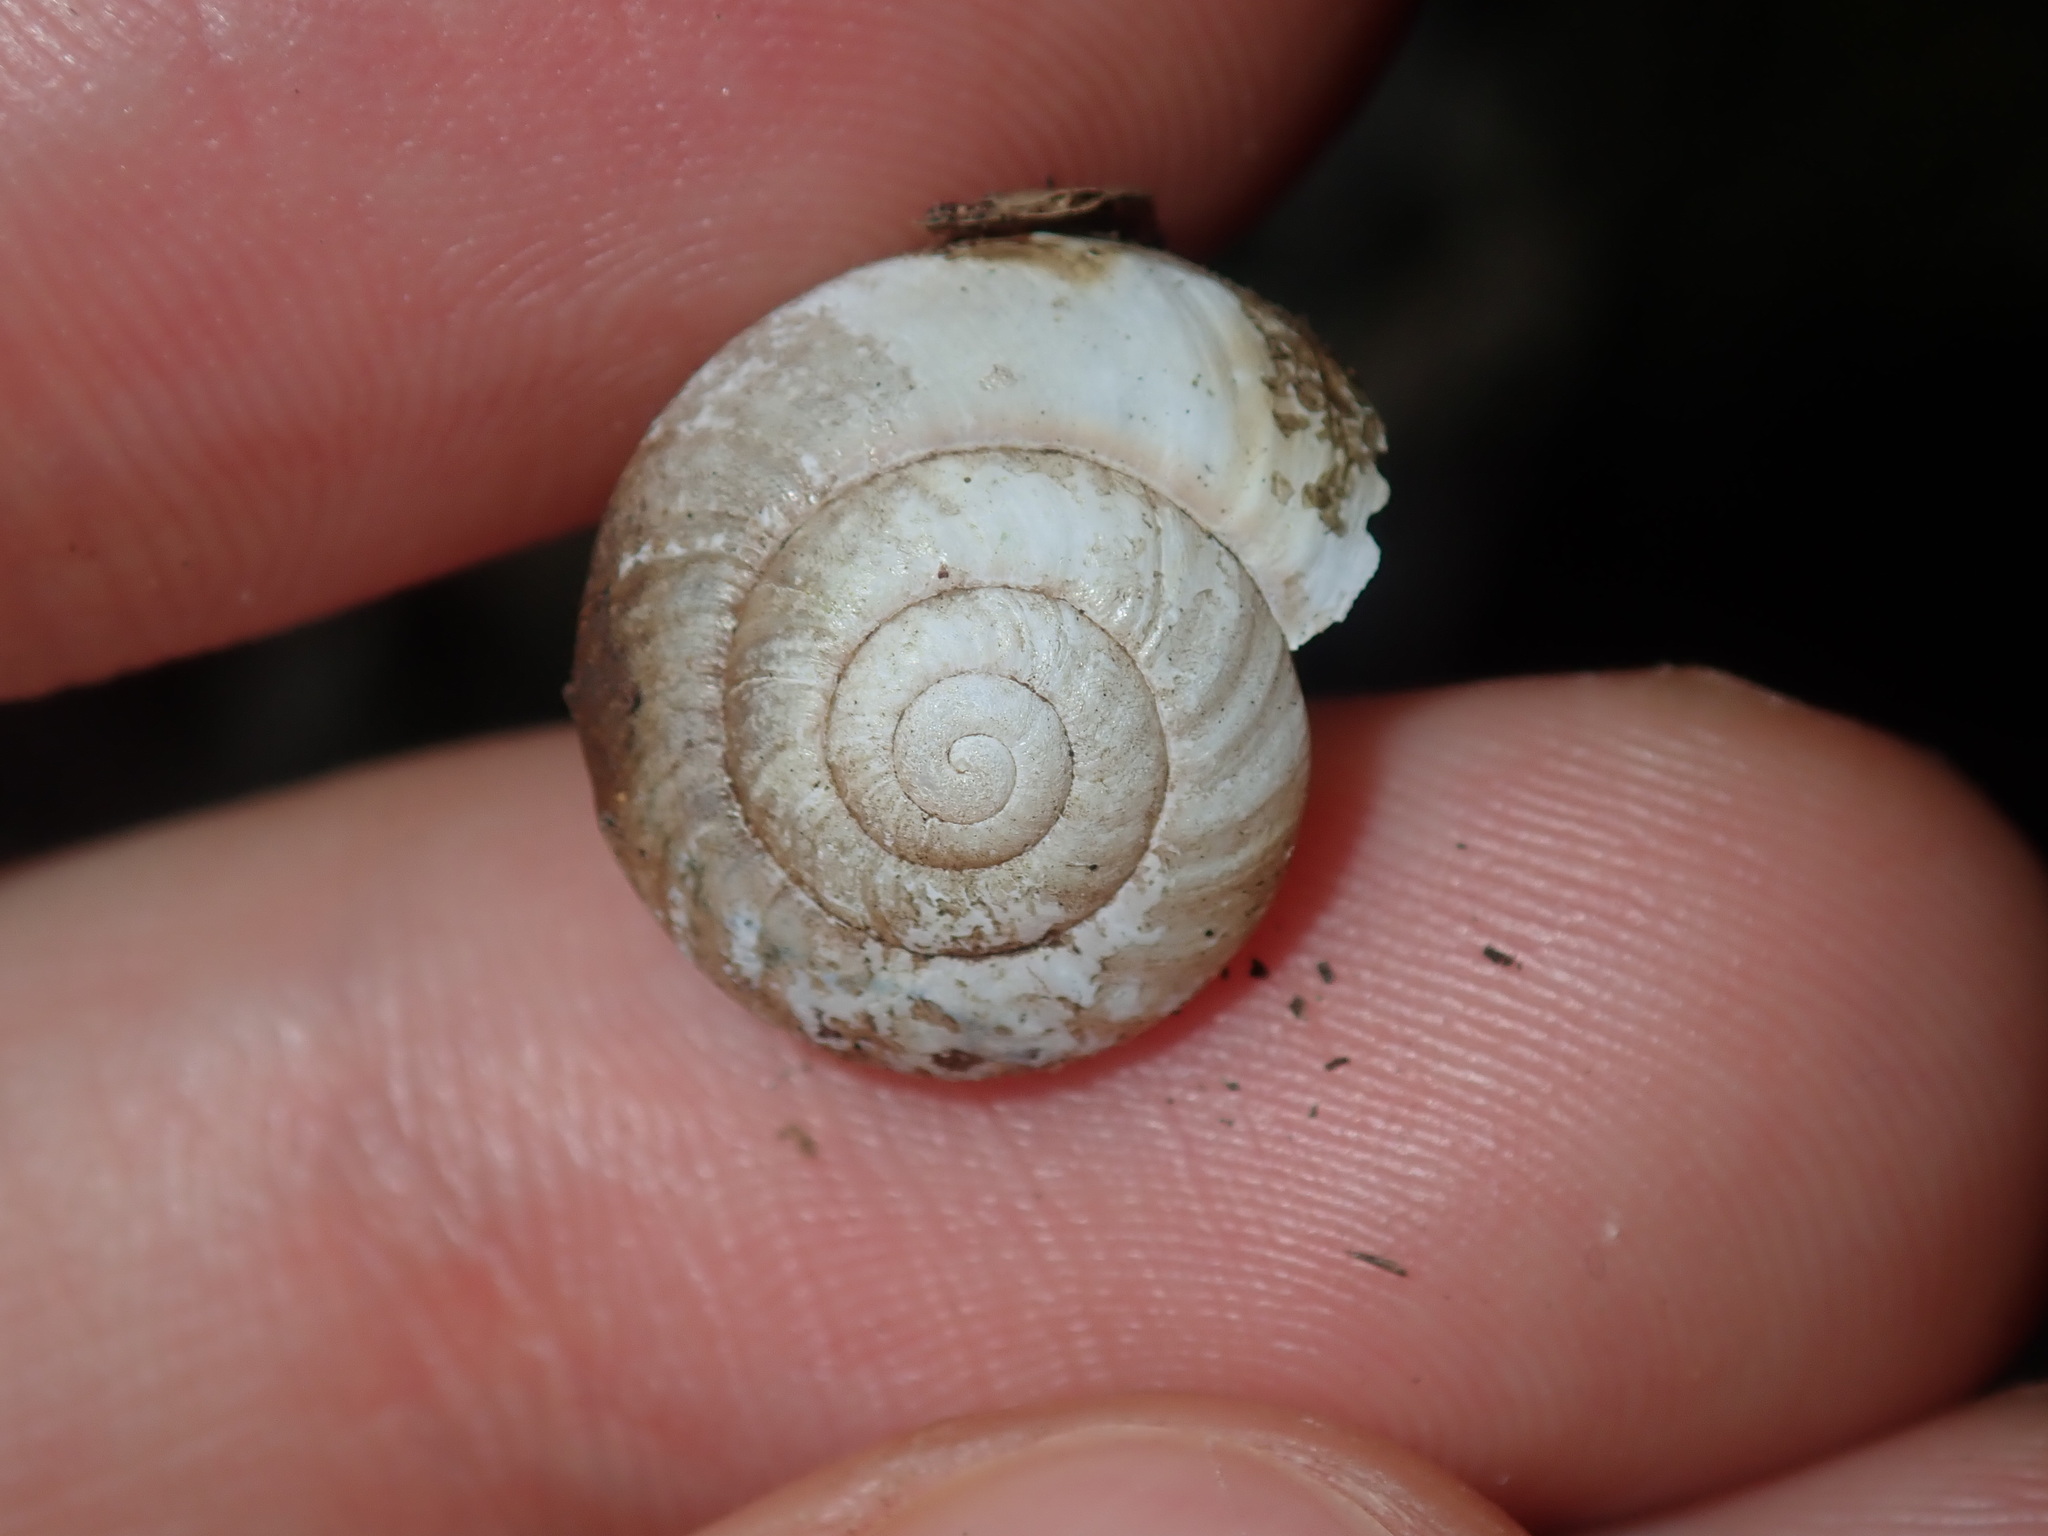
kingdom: Animalia
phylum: Mollusca
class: Gastropoda
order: Stylommatophora
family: Camaenidae
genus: Sauroconcha
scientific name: Sauroconcha sheai
